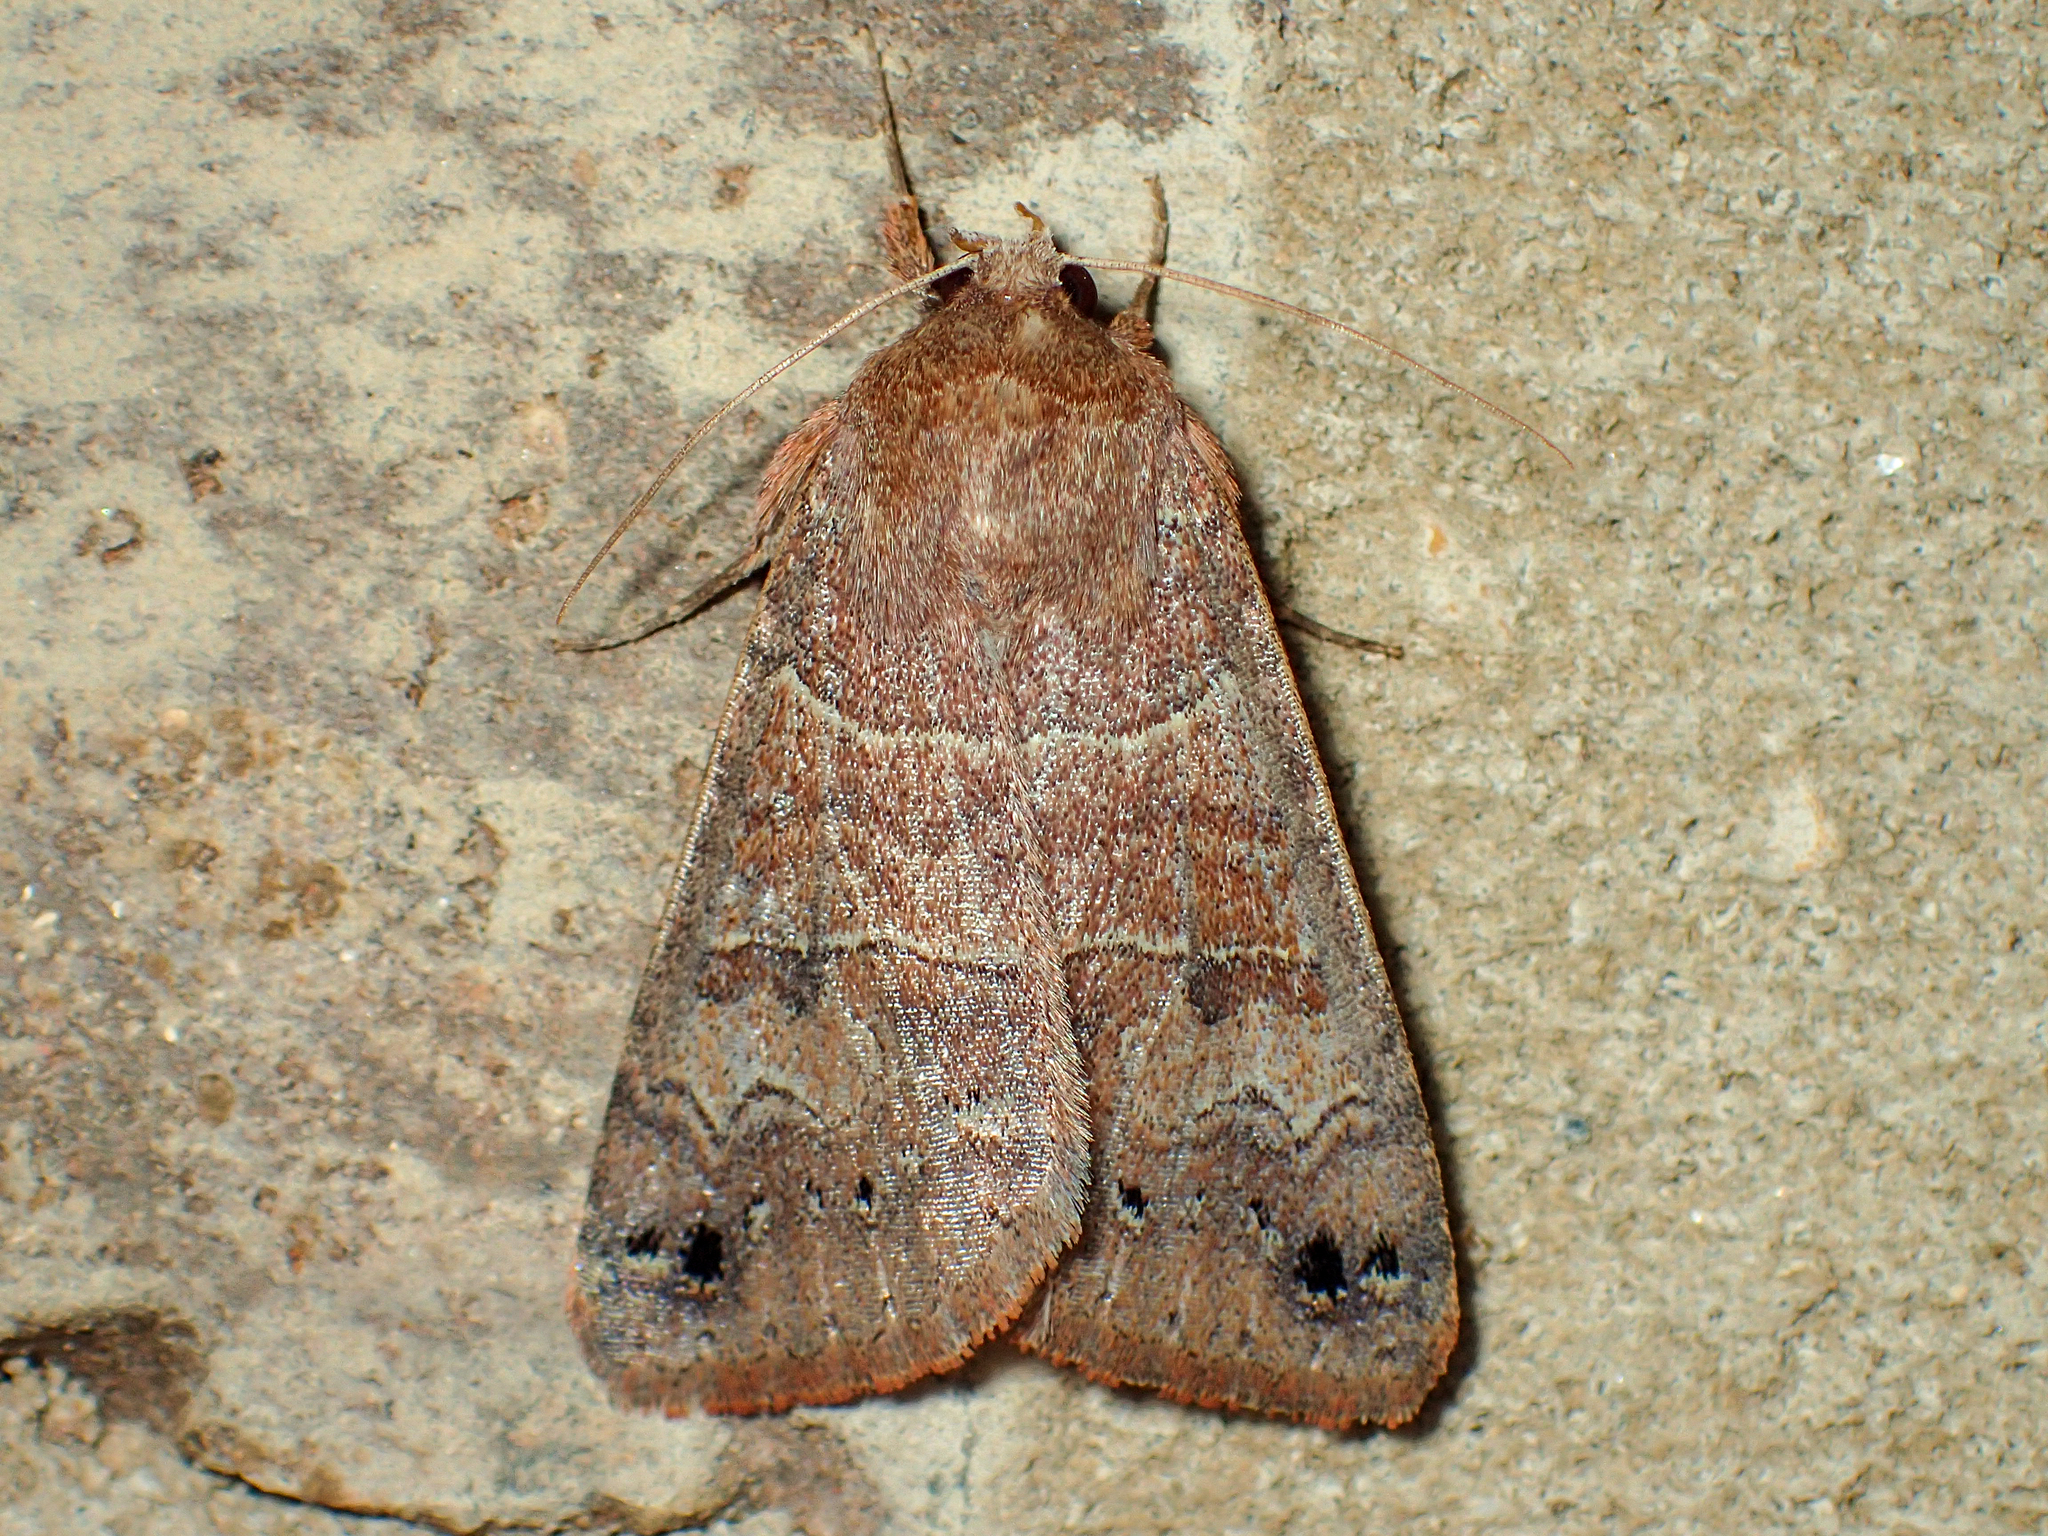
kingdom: Animalia
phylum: Arthropoda
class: Insecta
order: Lepidoptera
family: Erebidae
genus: Cissusa
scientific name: Cissusa spadix
